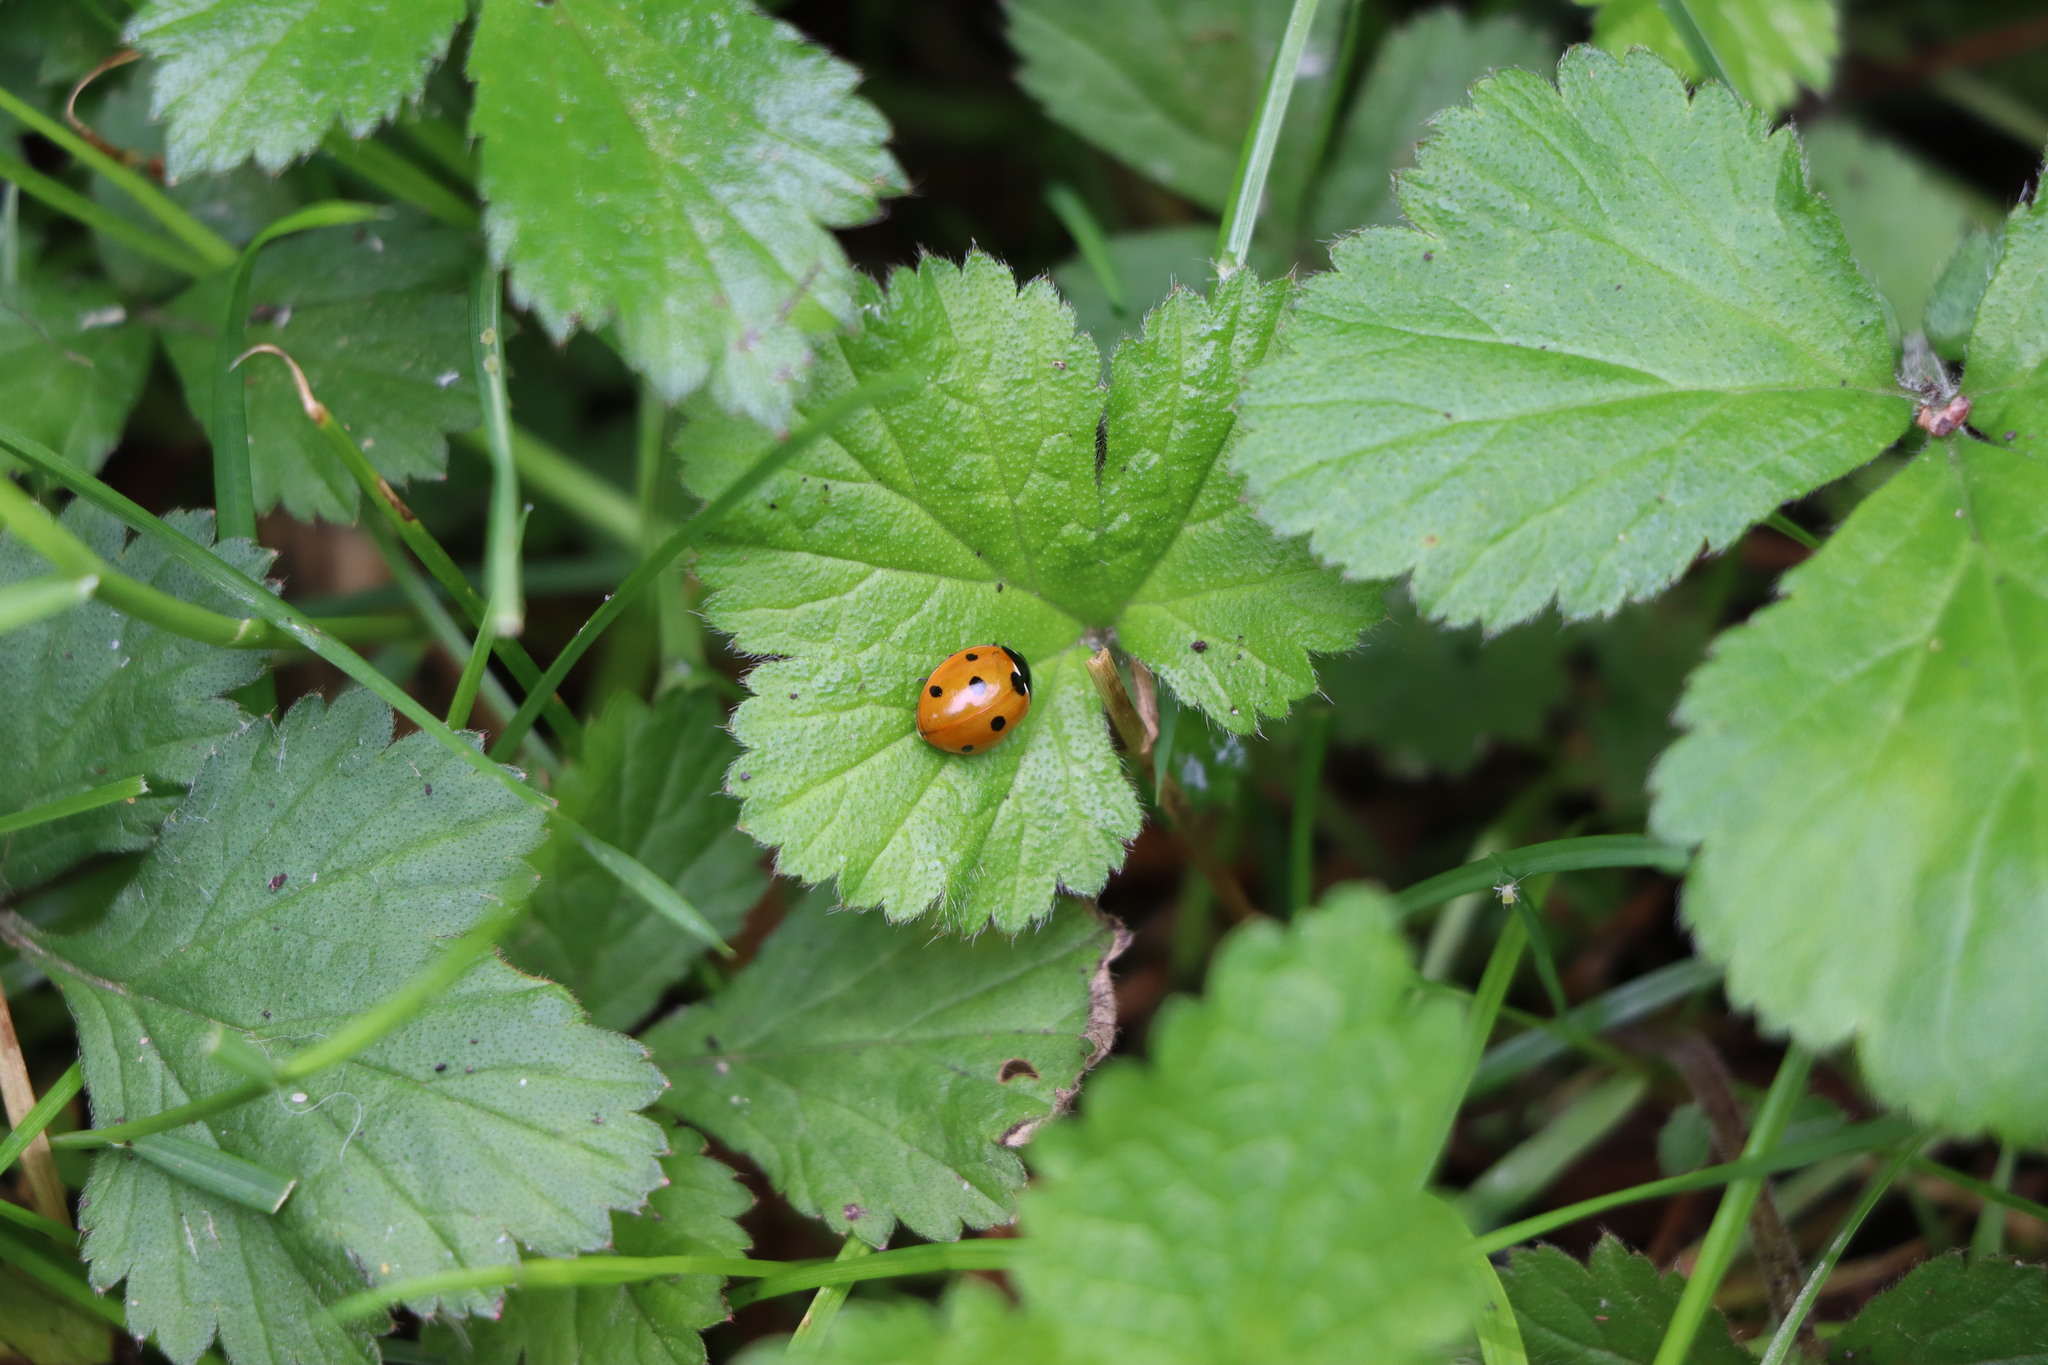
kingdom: Animalia
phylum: Arthropoda
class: Insecta
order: Coleoptera
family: Coccinellidae
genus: Coccinella
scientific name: Coccinella septempunctata
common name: Sevenspotted lady beetle
